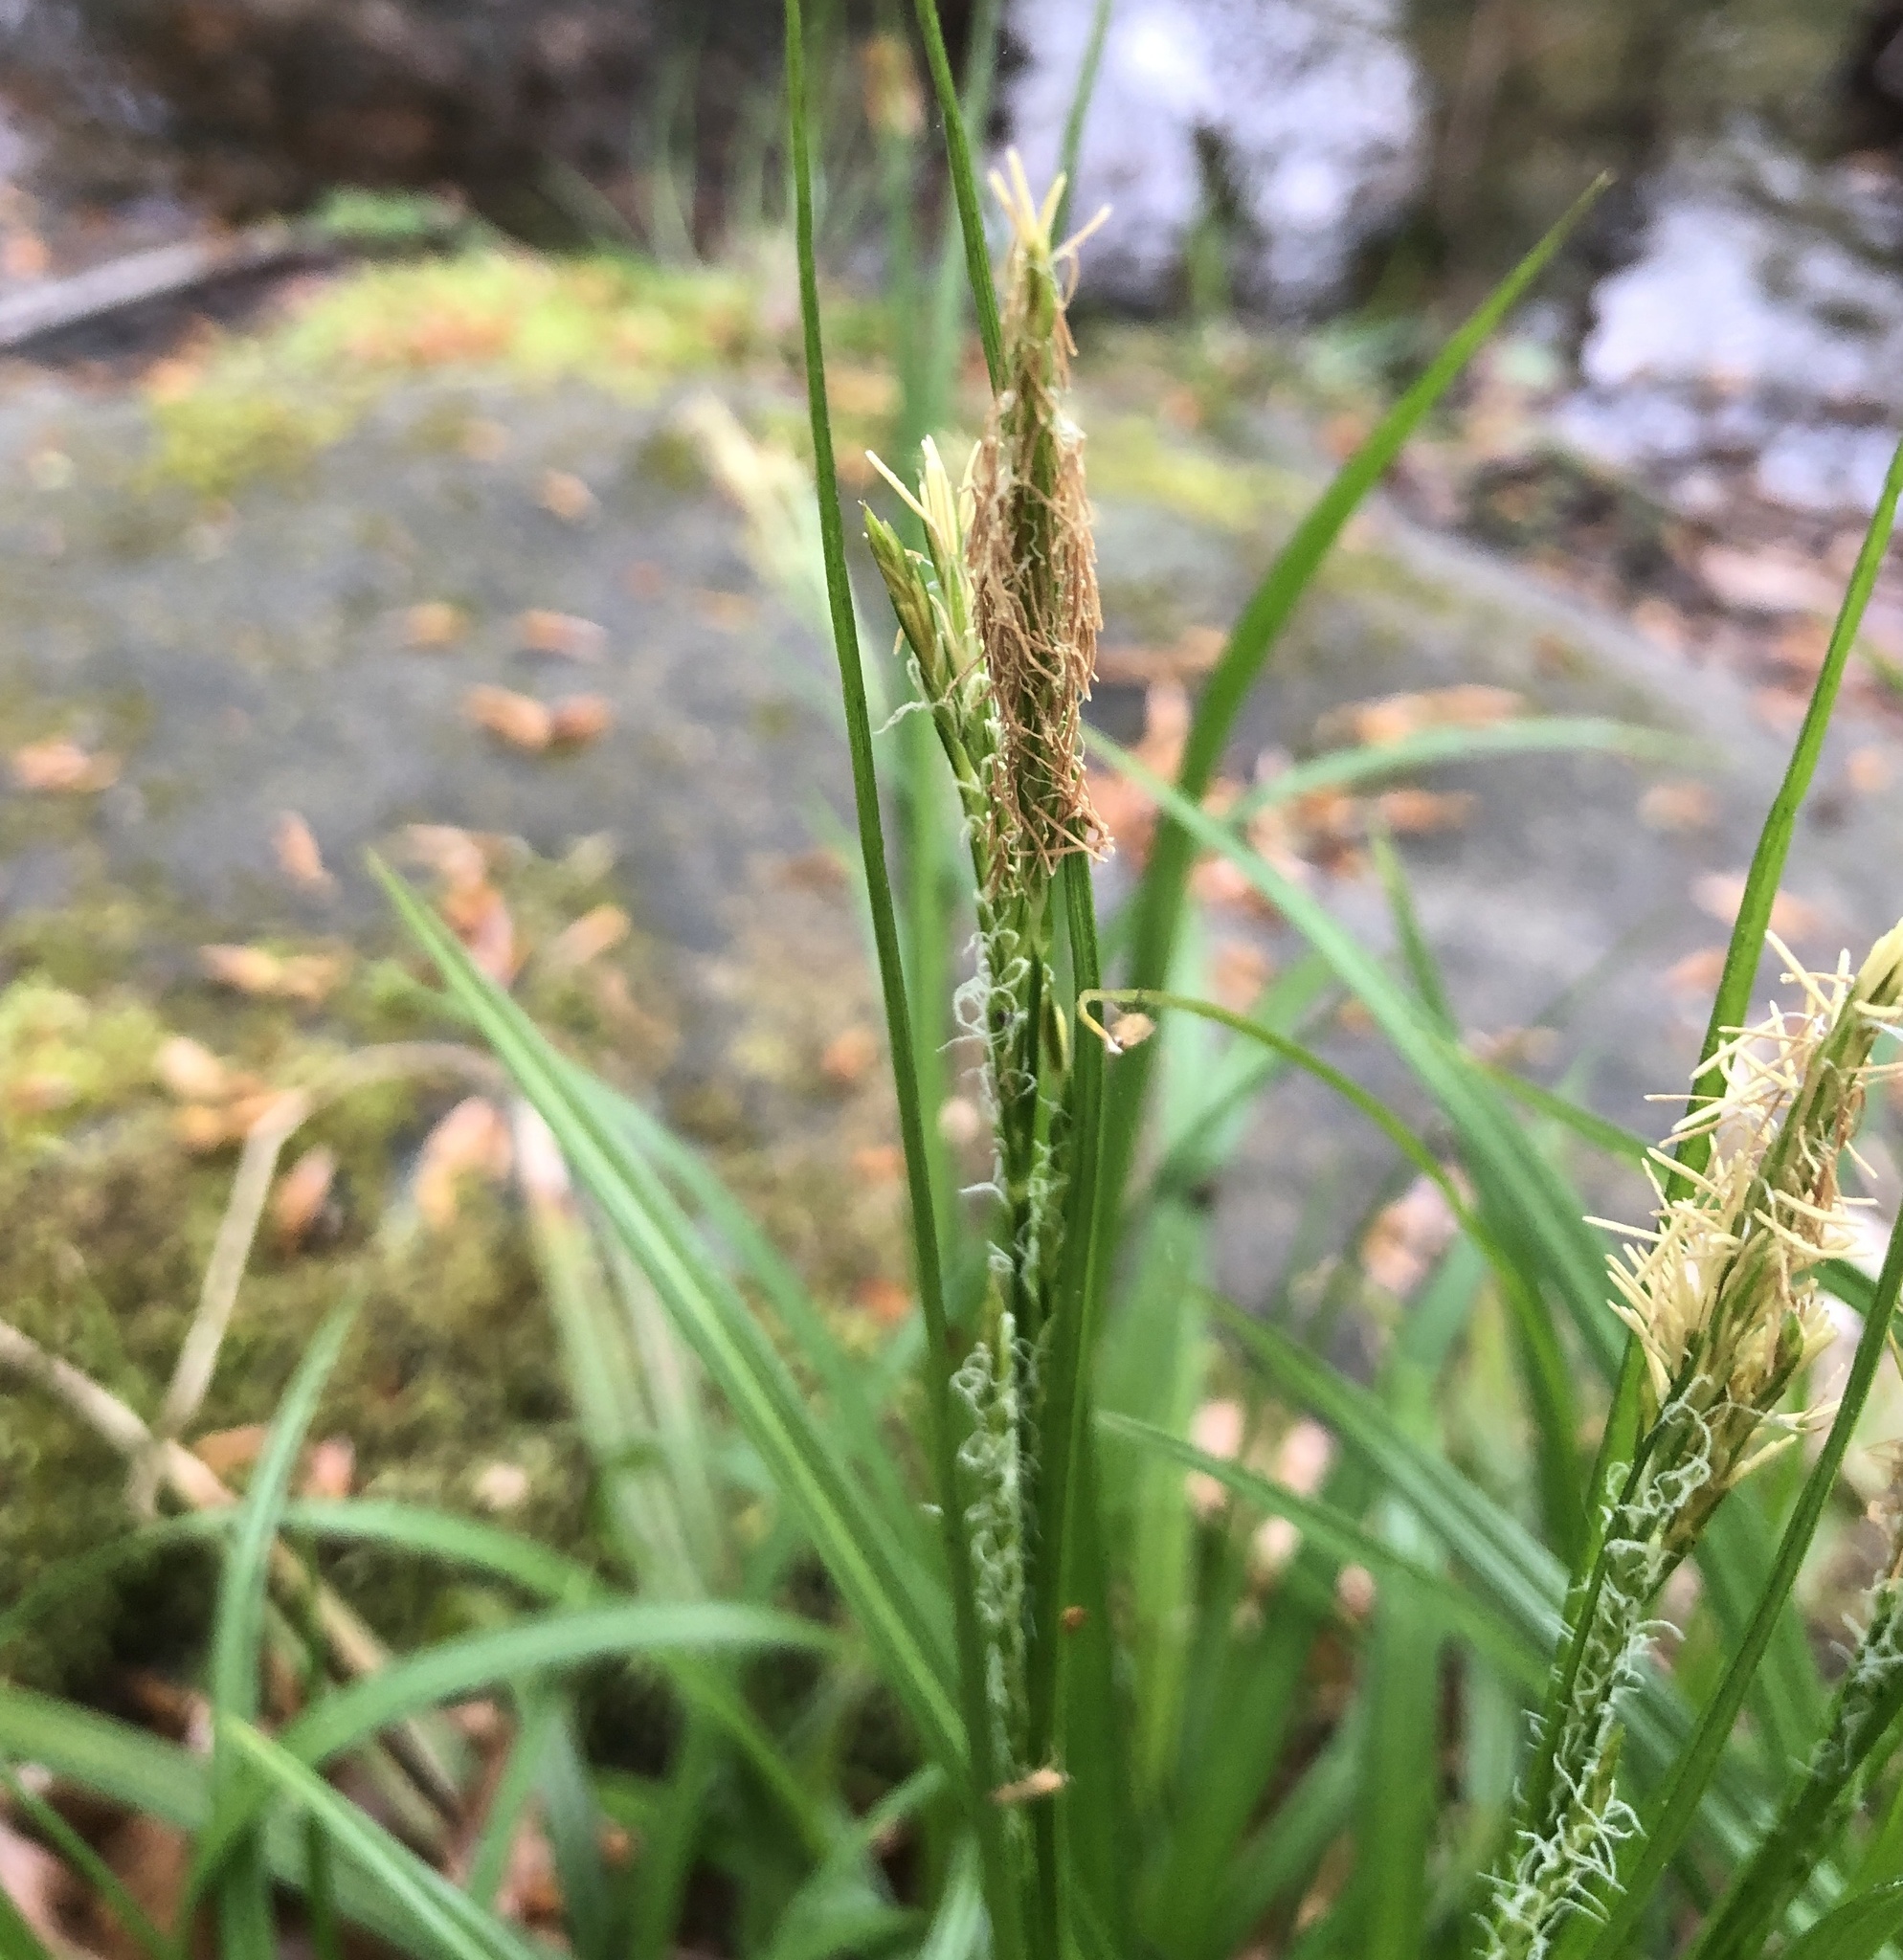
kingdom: Plantae
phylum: Tracheophyta
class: Liliopsida
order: Poales
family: Cyperaceae
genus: Carex
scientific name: Carex sylvatica
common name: Wood-sedge
